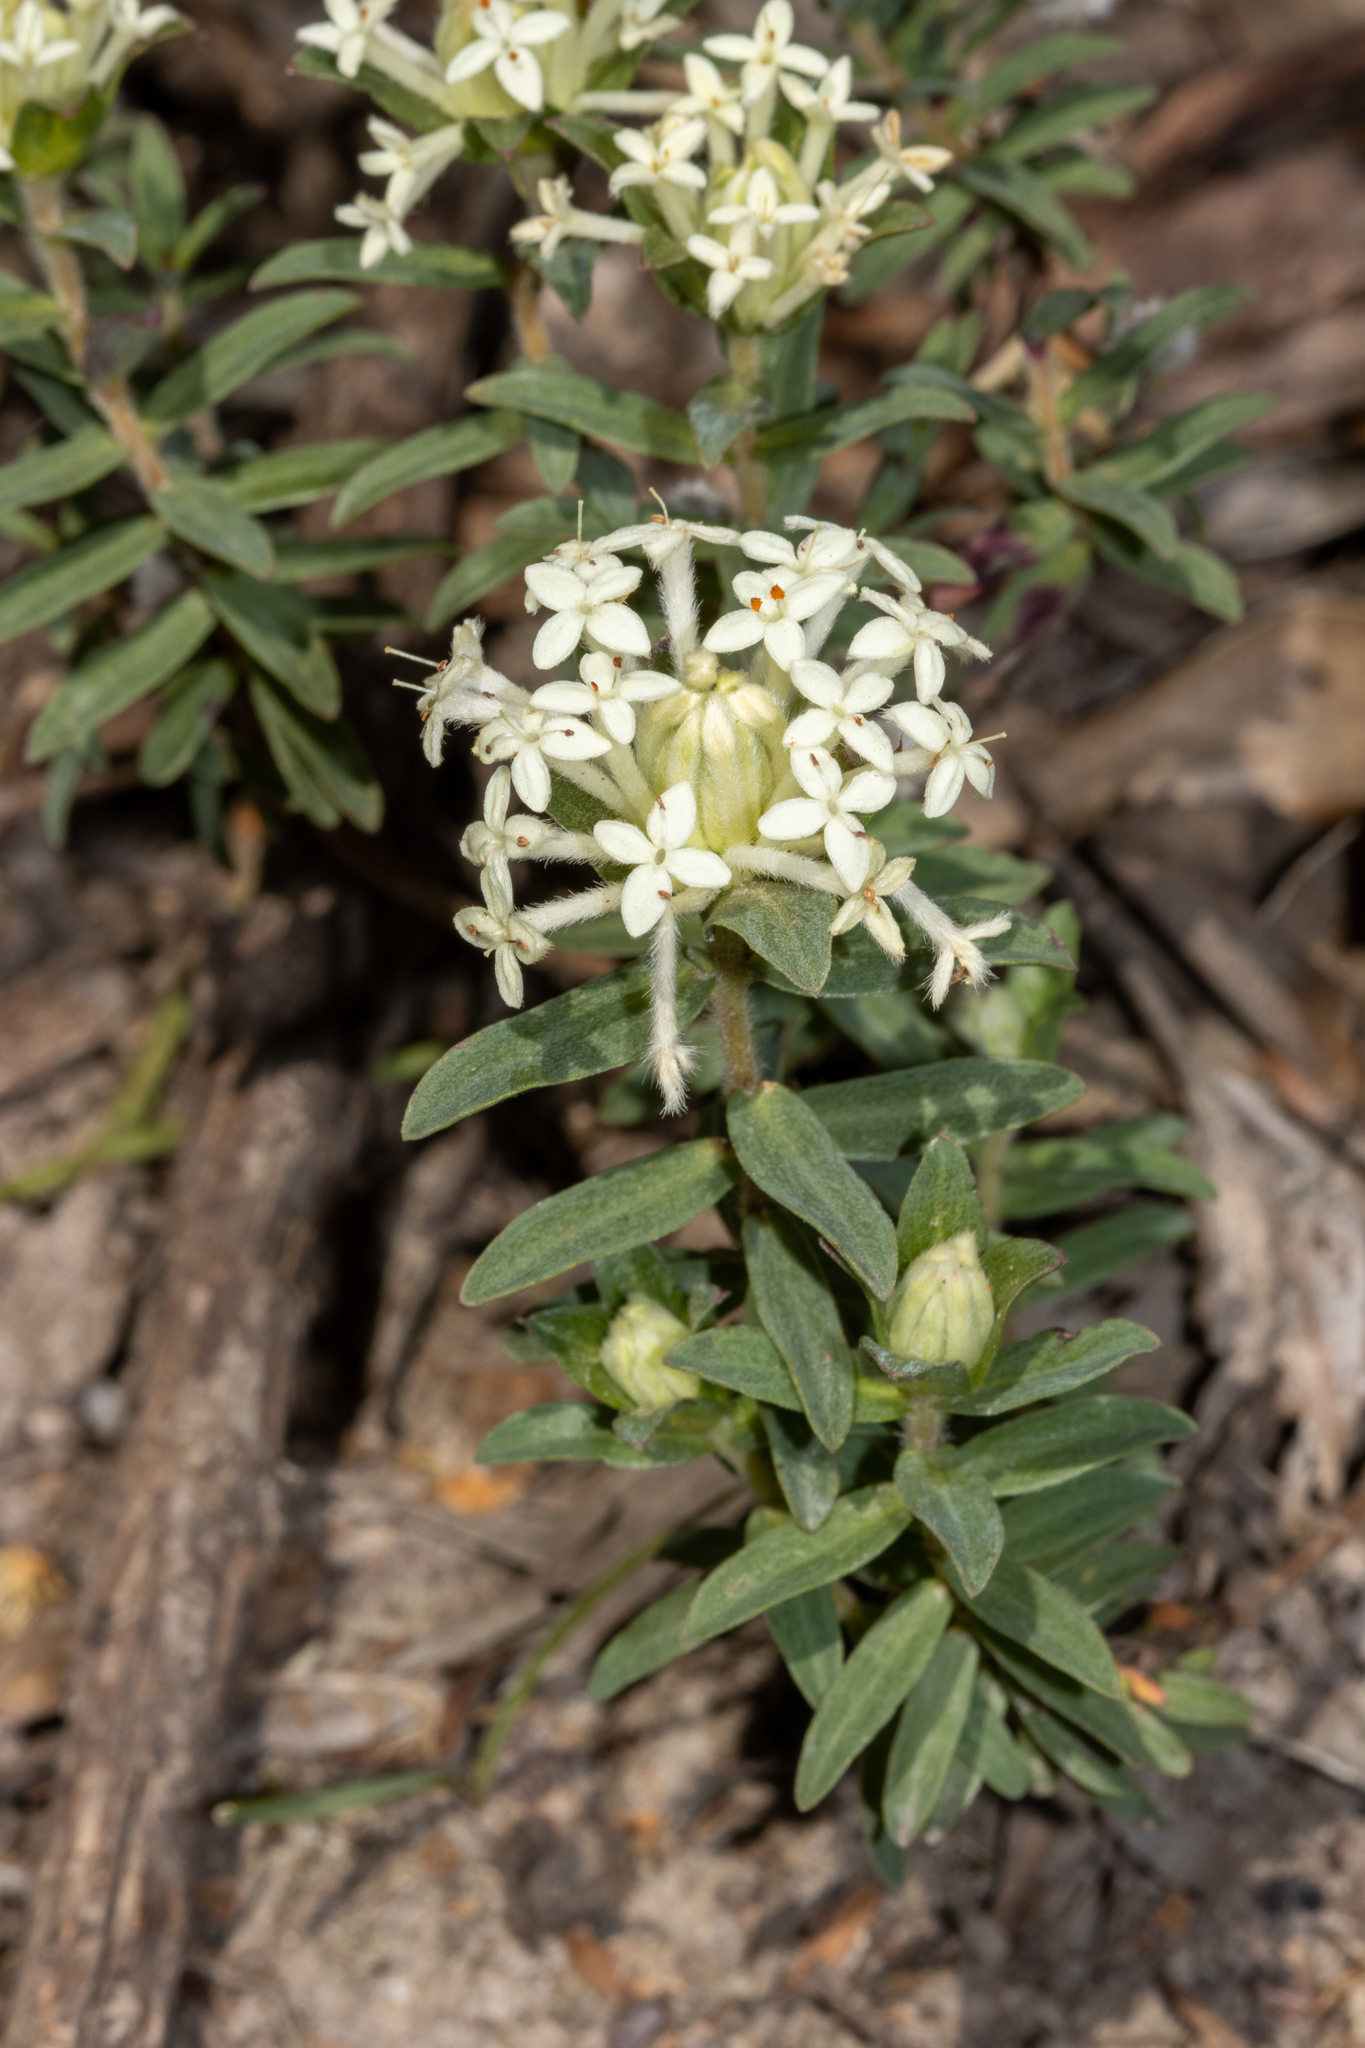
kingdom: Plantae
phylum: Tracheophyta
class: Magnoliopsida
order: Malvales
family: Thymelaeaceae
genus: Pimelea
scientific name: Pimelea humilis
